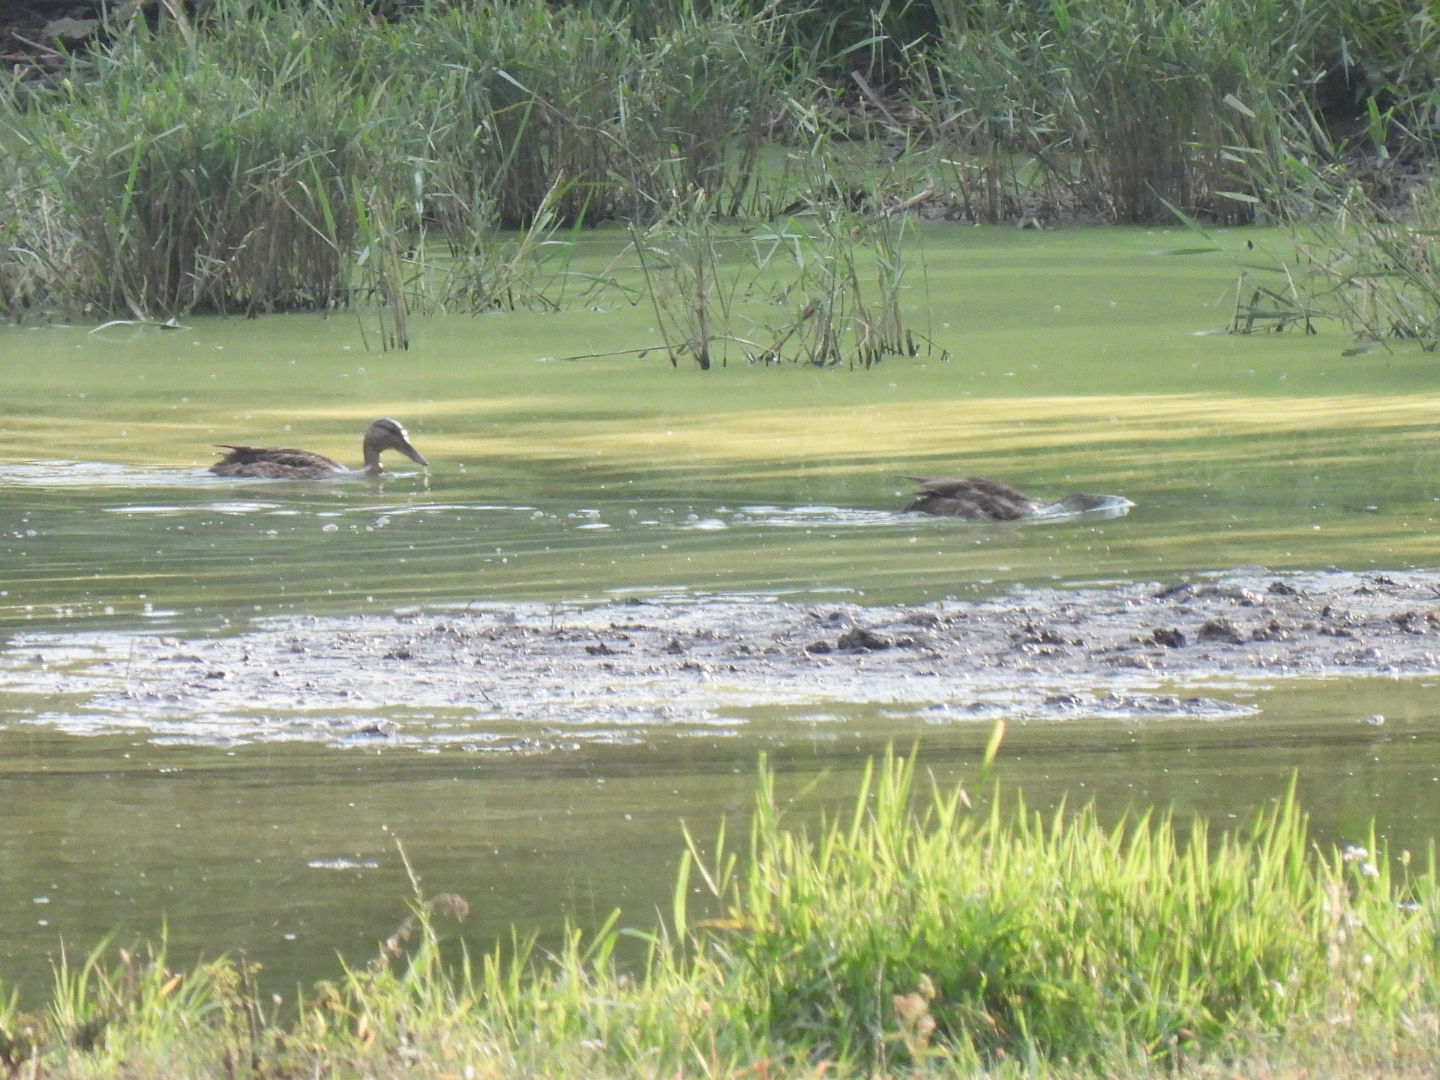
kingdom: Animalia
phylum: Chordata
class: Aves
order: Anseriformes
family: Anatidae
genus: Anas
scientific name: Anas platyrhynchos
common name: Mallard
